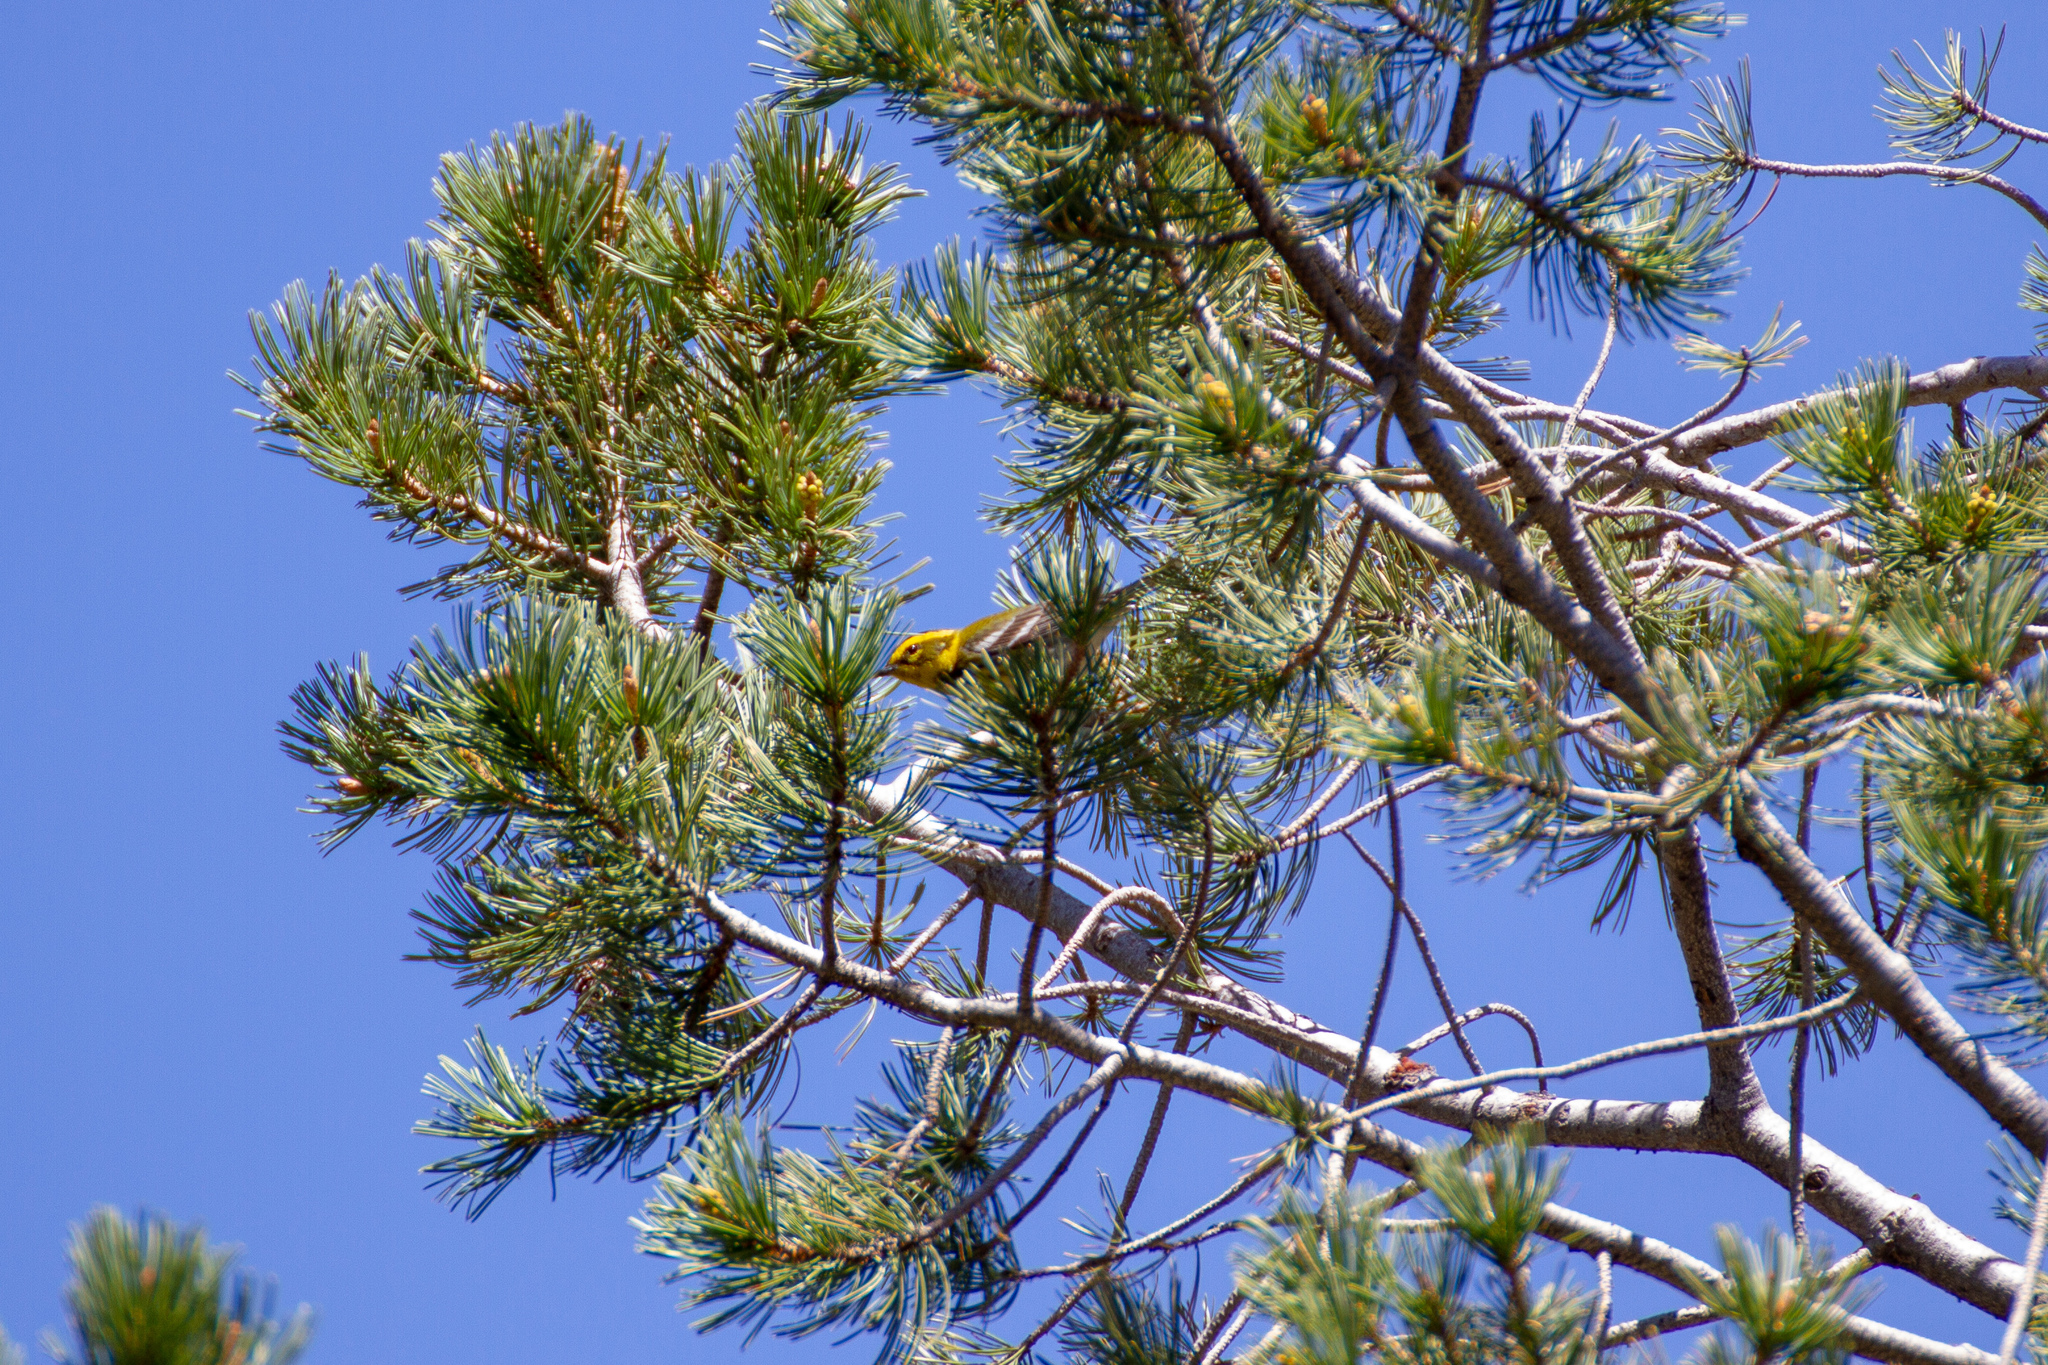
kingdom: Animalia
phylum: Chordata
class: Aves
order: Passeriformes
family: Parulidae
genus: Setophaga
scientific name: Setophaga townsendi
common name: Townsend's warbler
